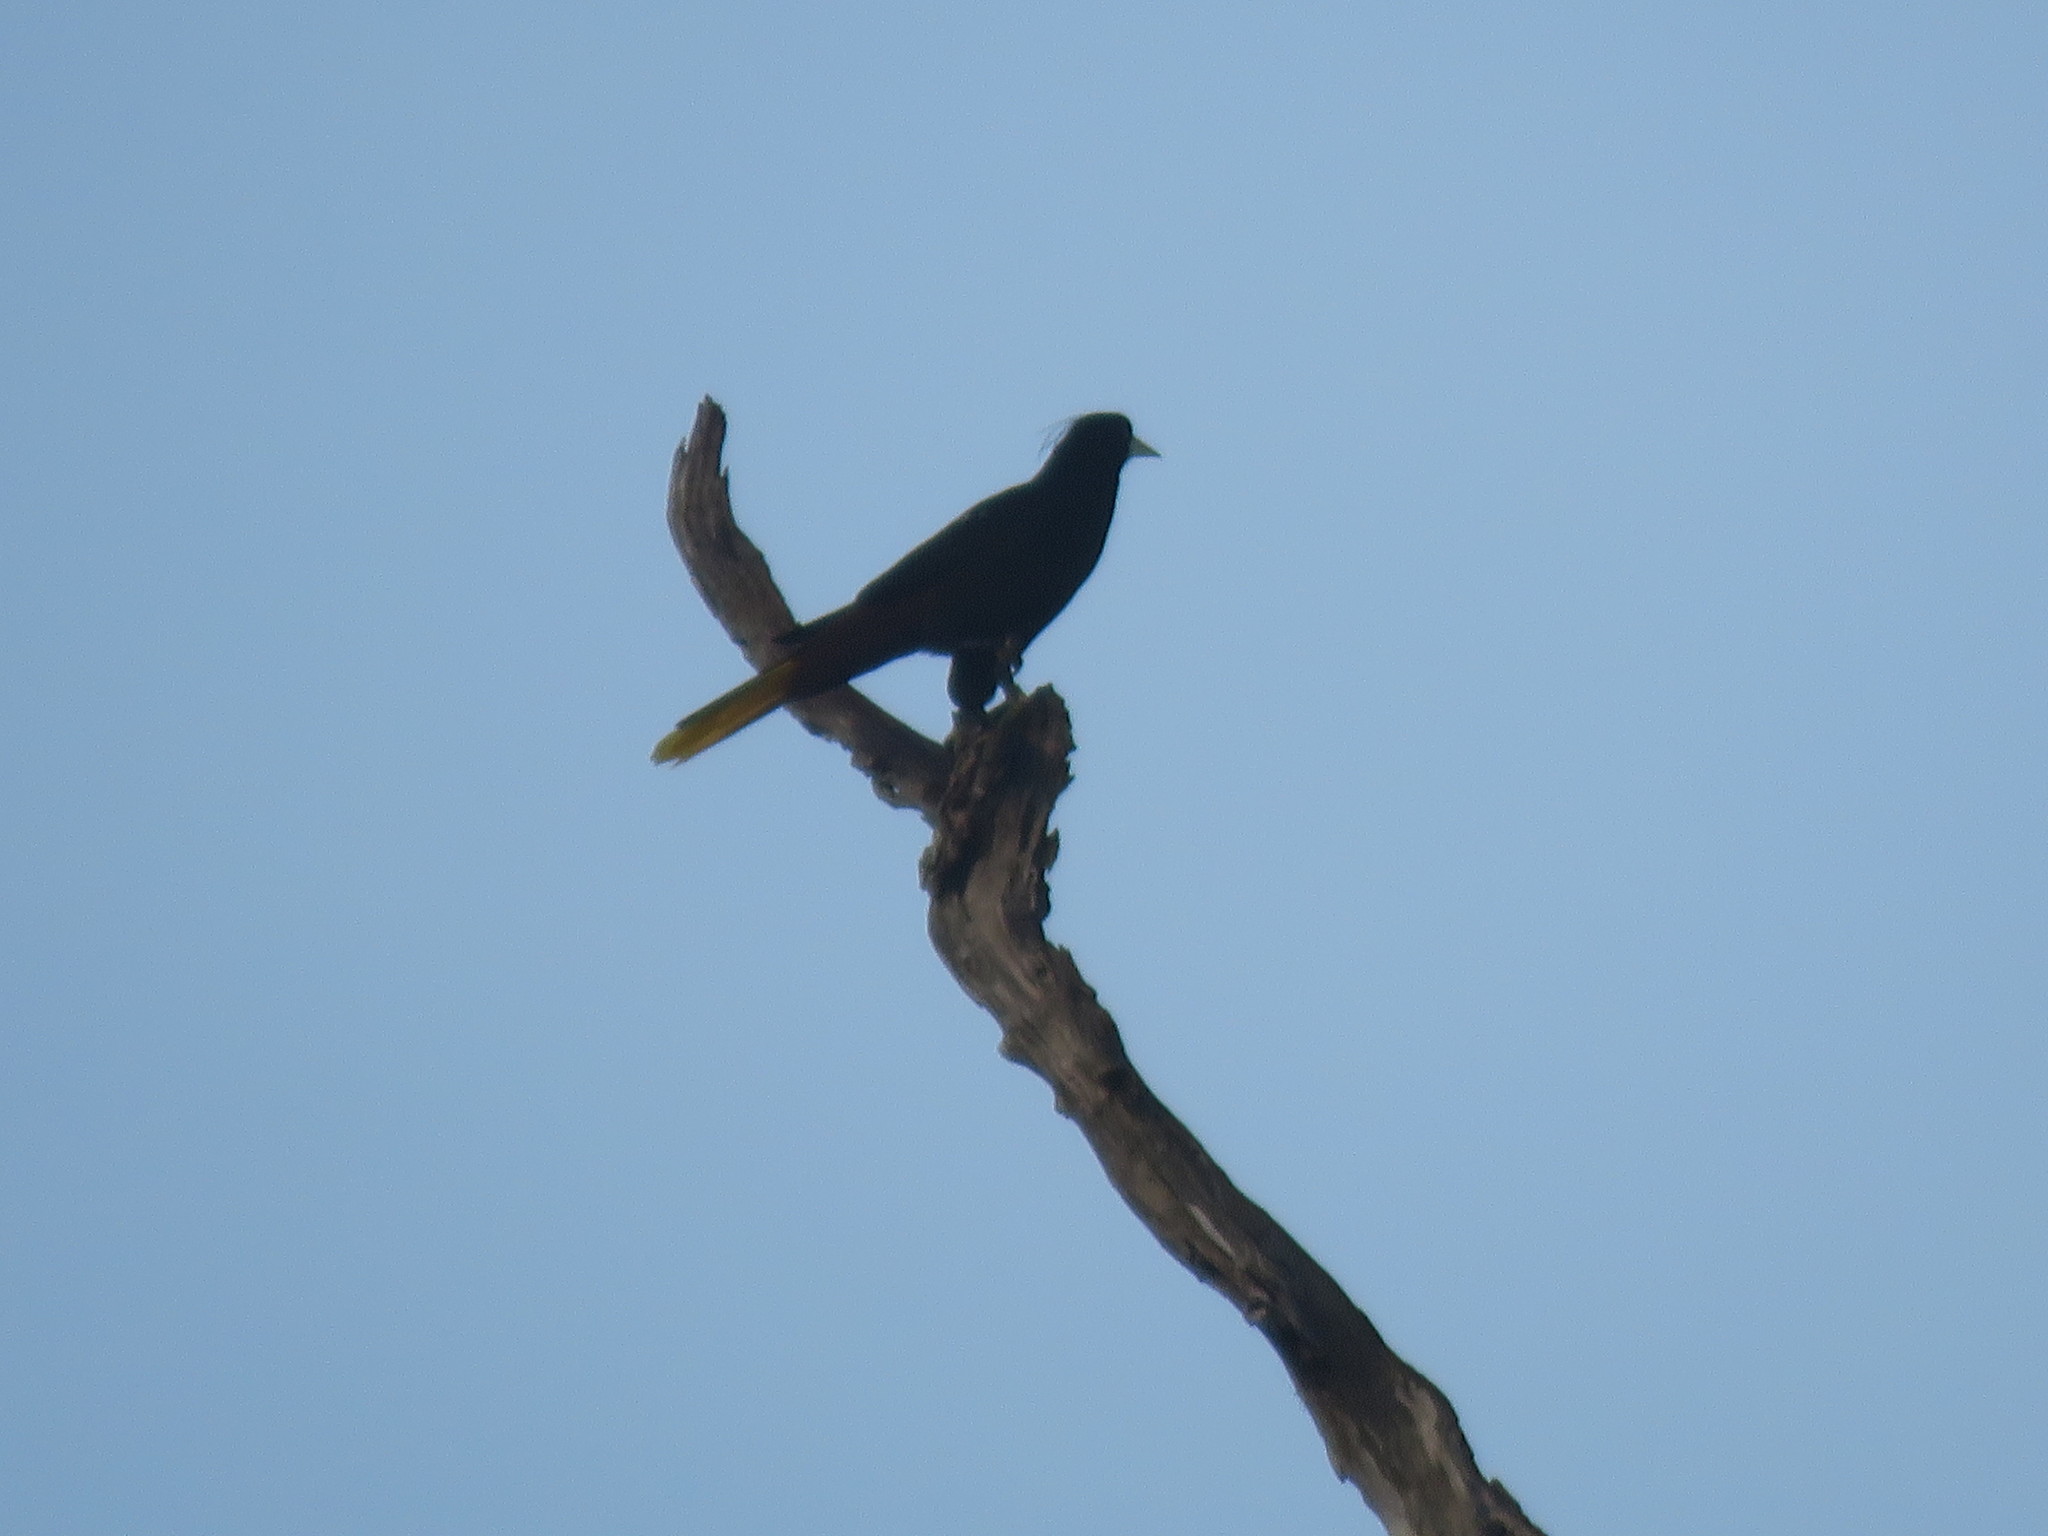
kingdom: Animalia
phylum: Chordata
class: Aves
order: Passeriformes
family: Icteridae
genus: Psarocolius
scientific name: Psarocolius decumanus
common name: Crested oropendola
